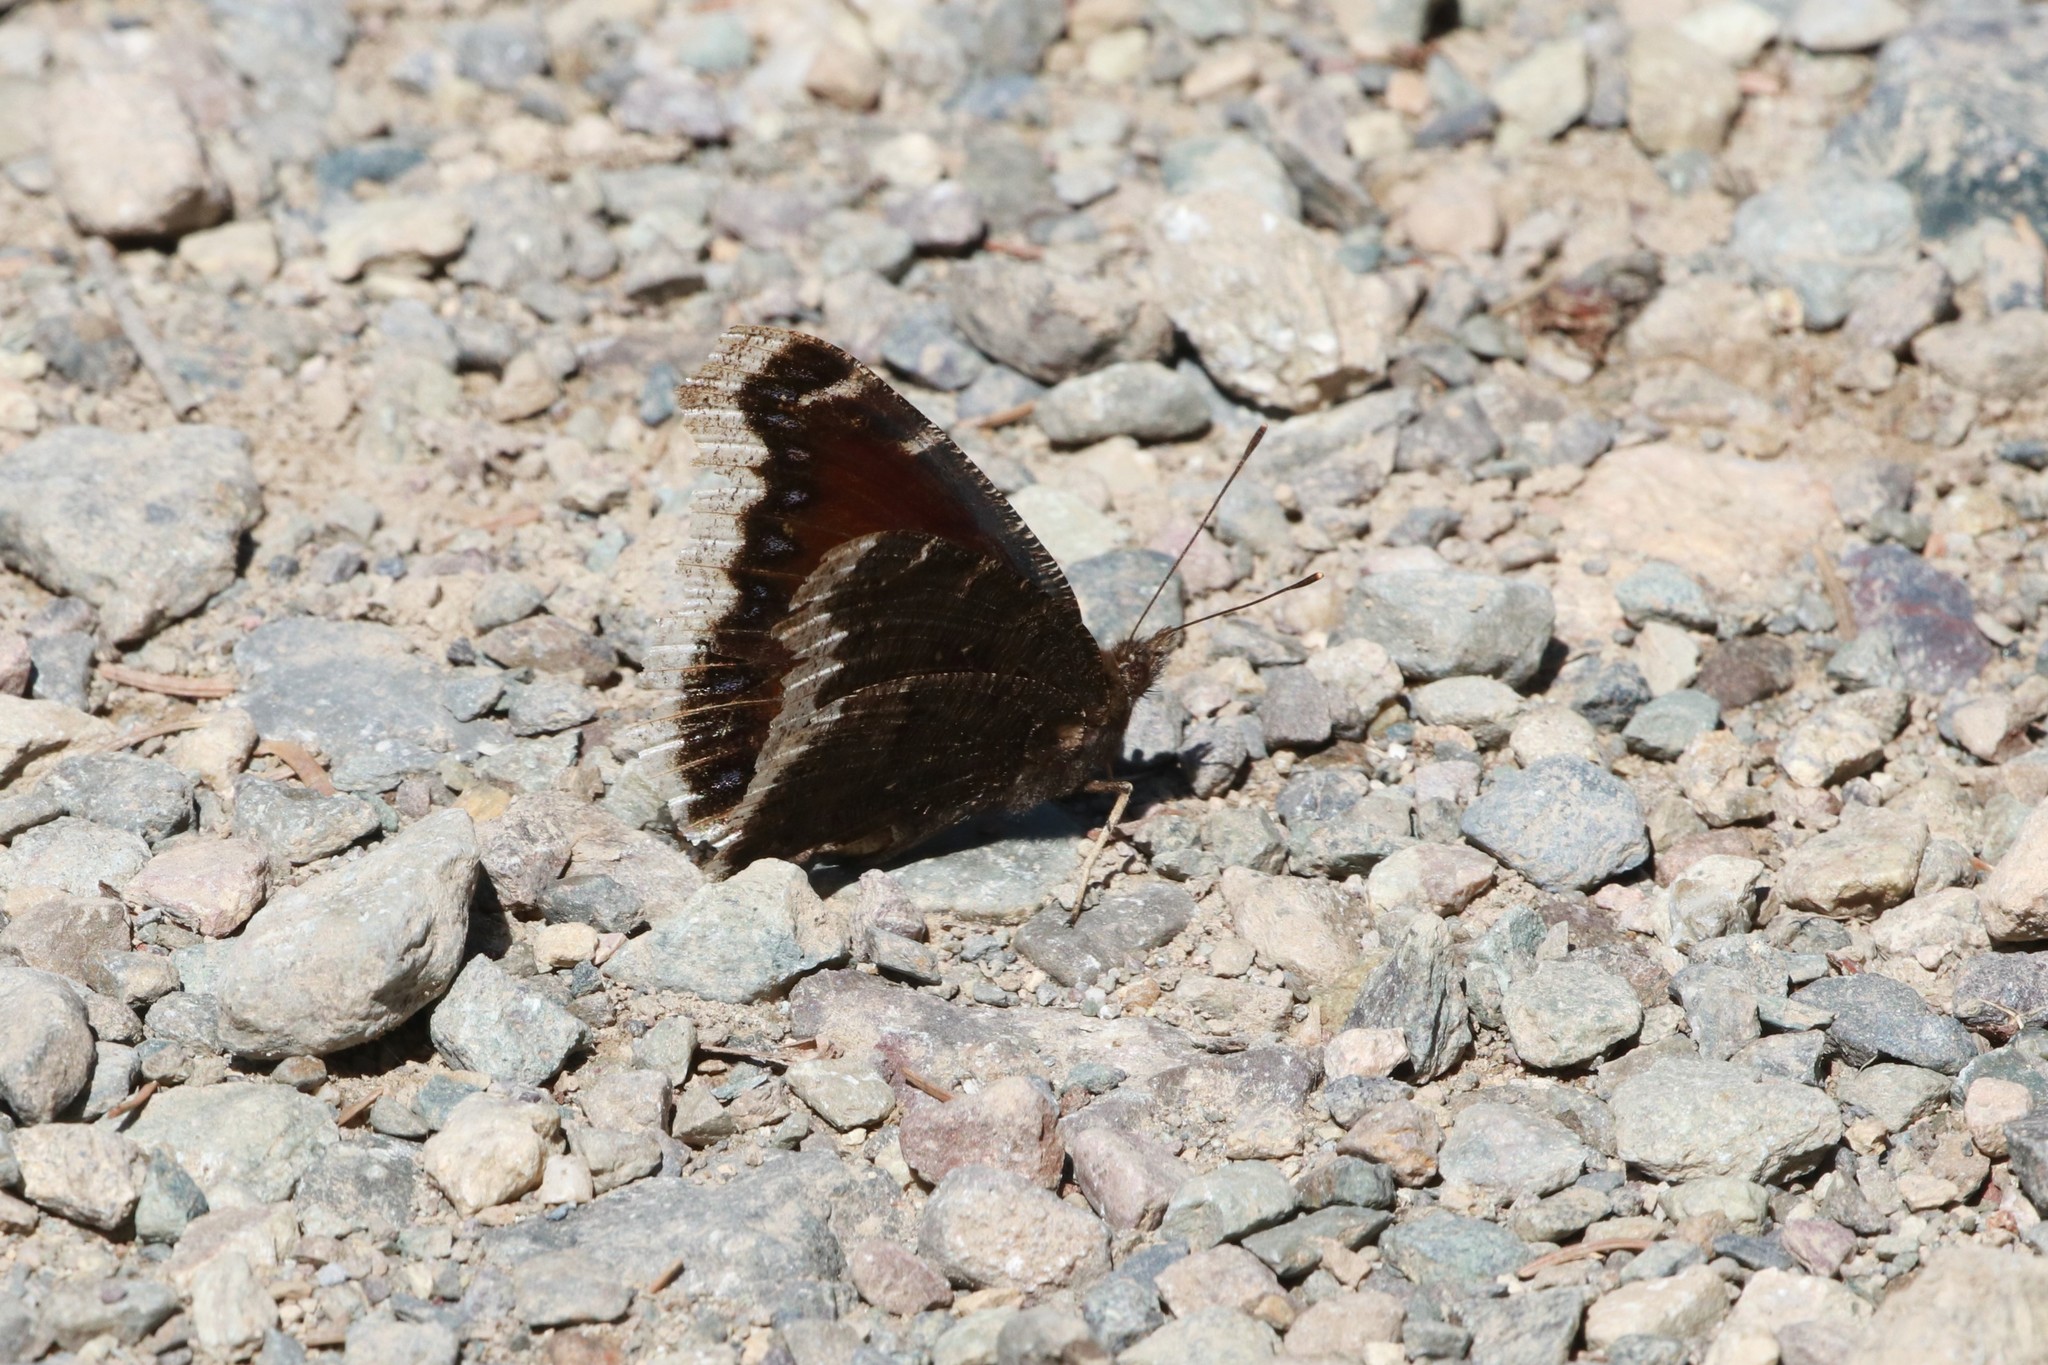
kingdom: Animalia
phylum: Arthropoda
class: Insecta
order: Lepidoptera
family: Nymphalidae
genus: Nymphalis
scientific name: Nymphalis antiopa
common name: Camberwell beauty
